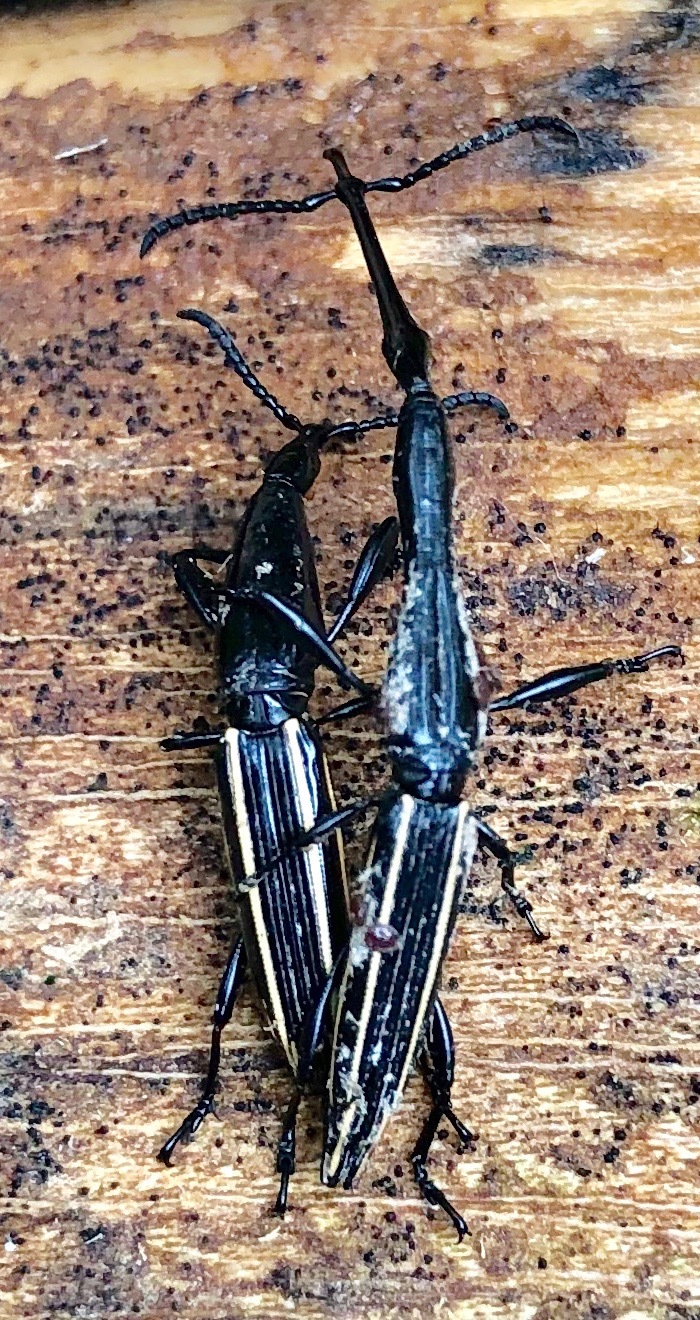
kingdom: Animalia
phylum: Arthropoda
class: Insecta
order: Coleoptera
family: Brentidae
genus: Brentus
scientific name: Brentus anchorago
